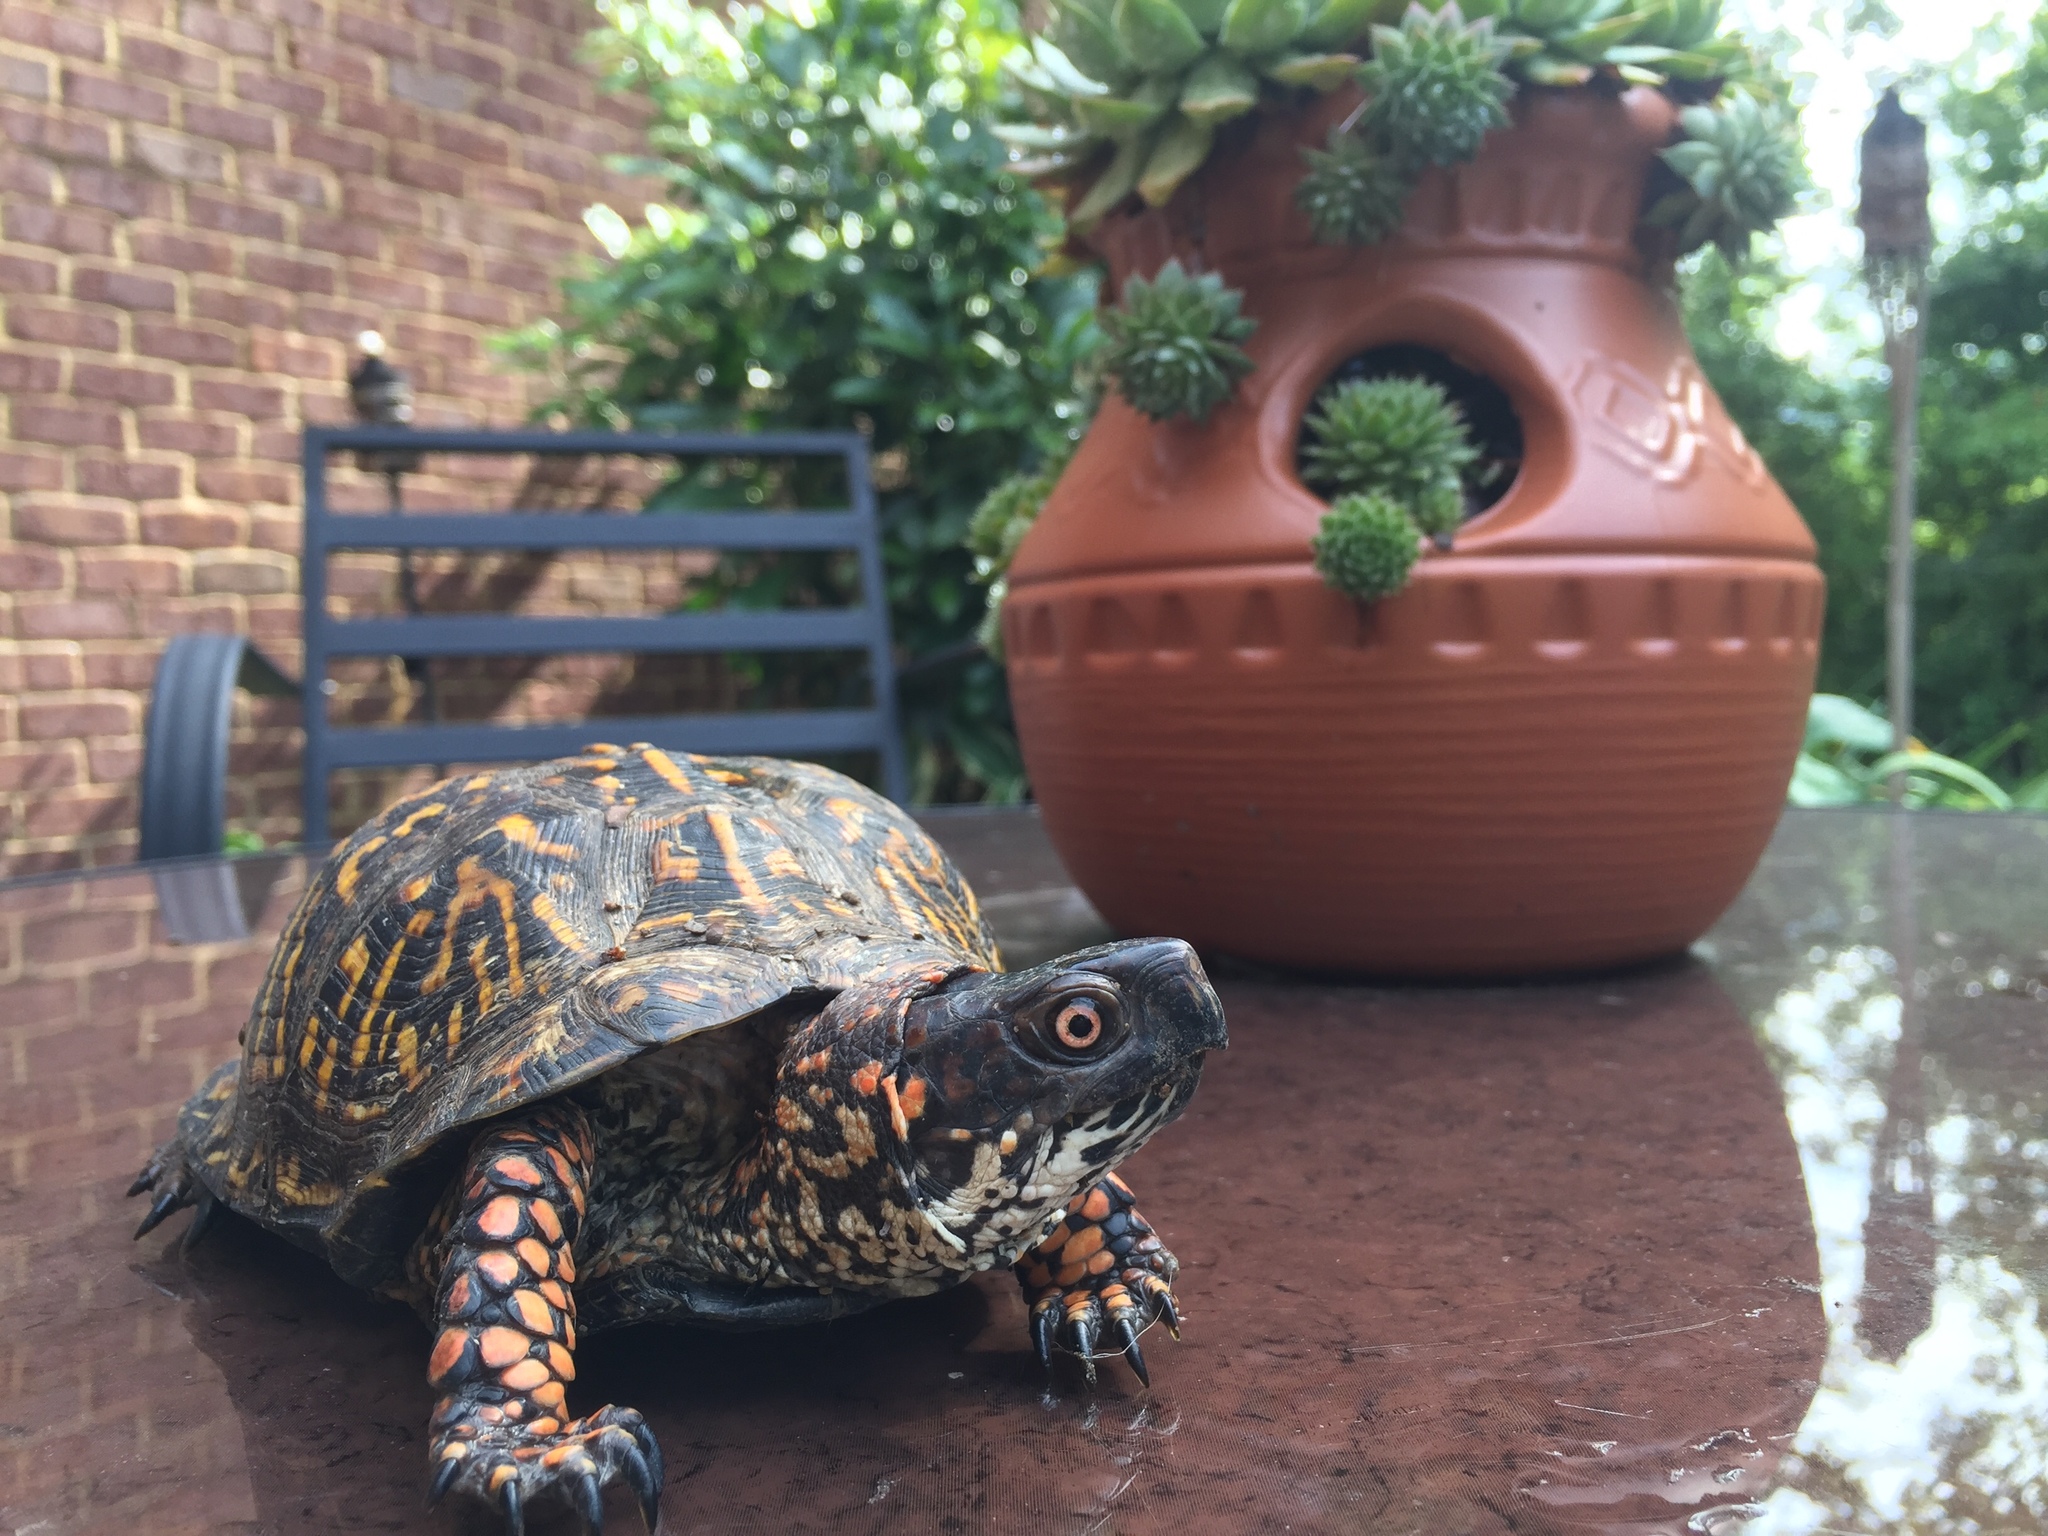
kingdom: Animalia
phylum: Chordata
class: Testudines
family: Emydidae
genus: Terrapene
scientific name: Terrapene carolina
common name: Common box turtle
